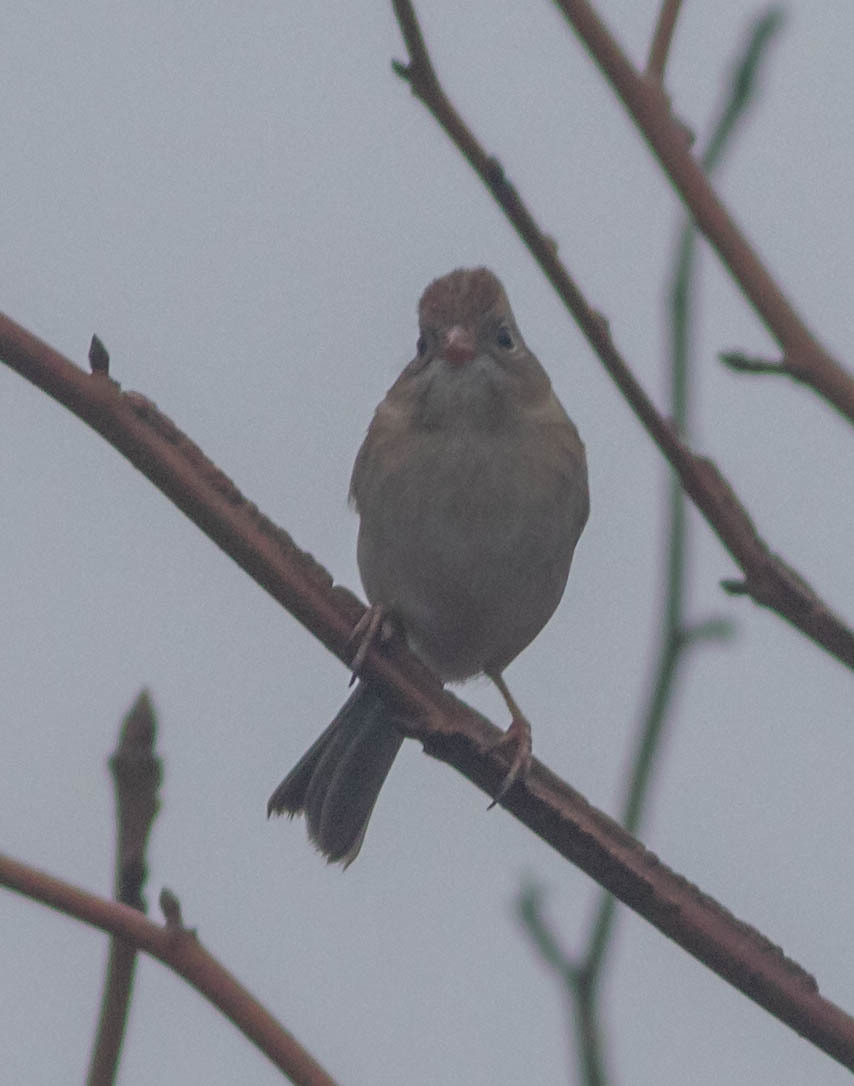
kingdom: Animalia
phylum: Chordata
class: Aves
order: Passeriformes
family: Passerellidae
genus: Spizella
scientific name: Spizella pusilla
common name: Field sparrow
